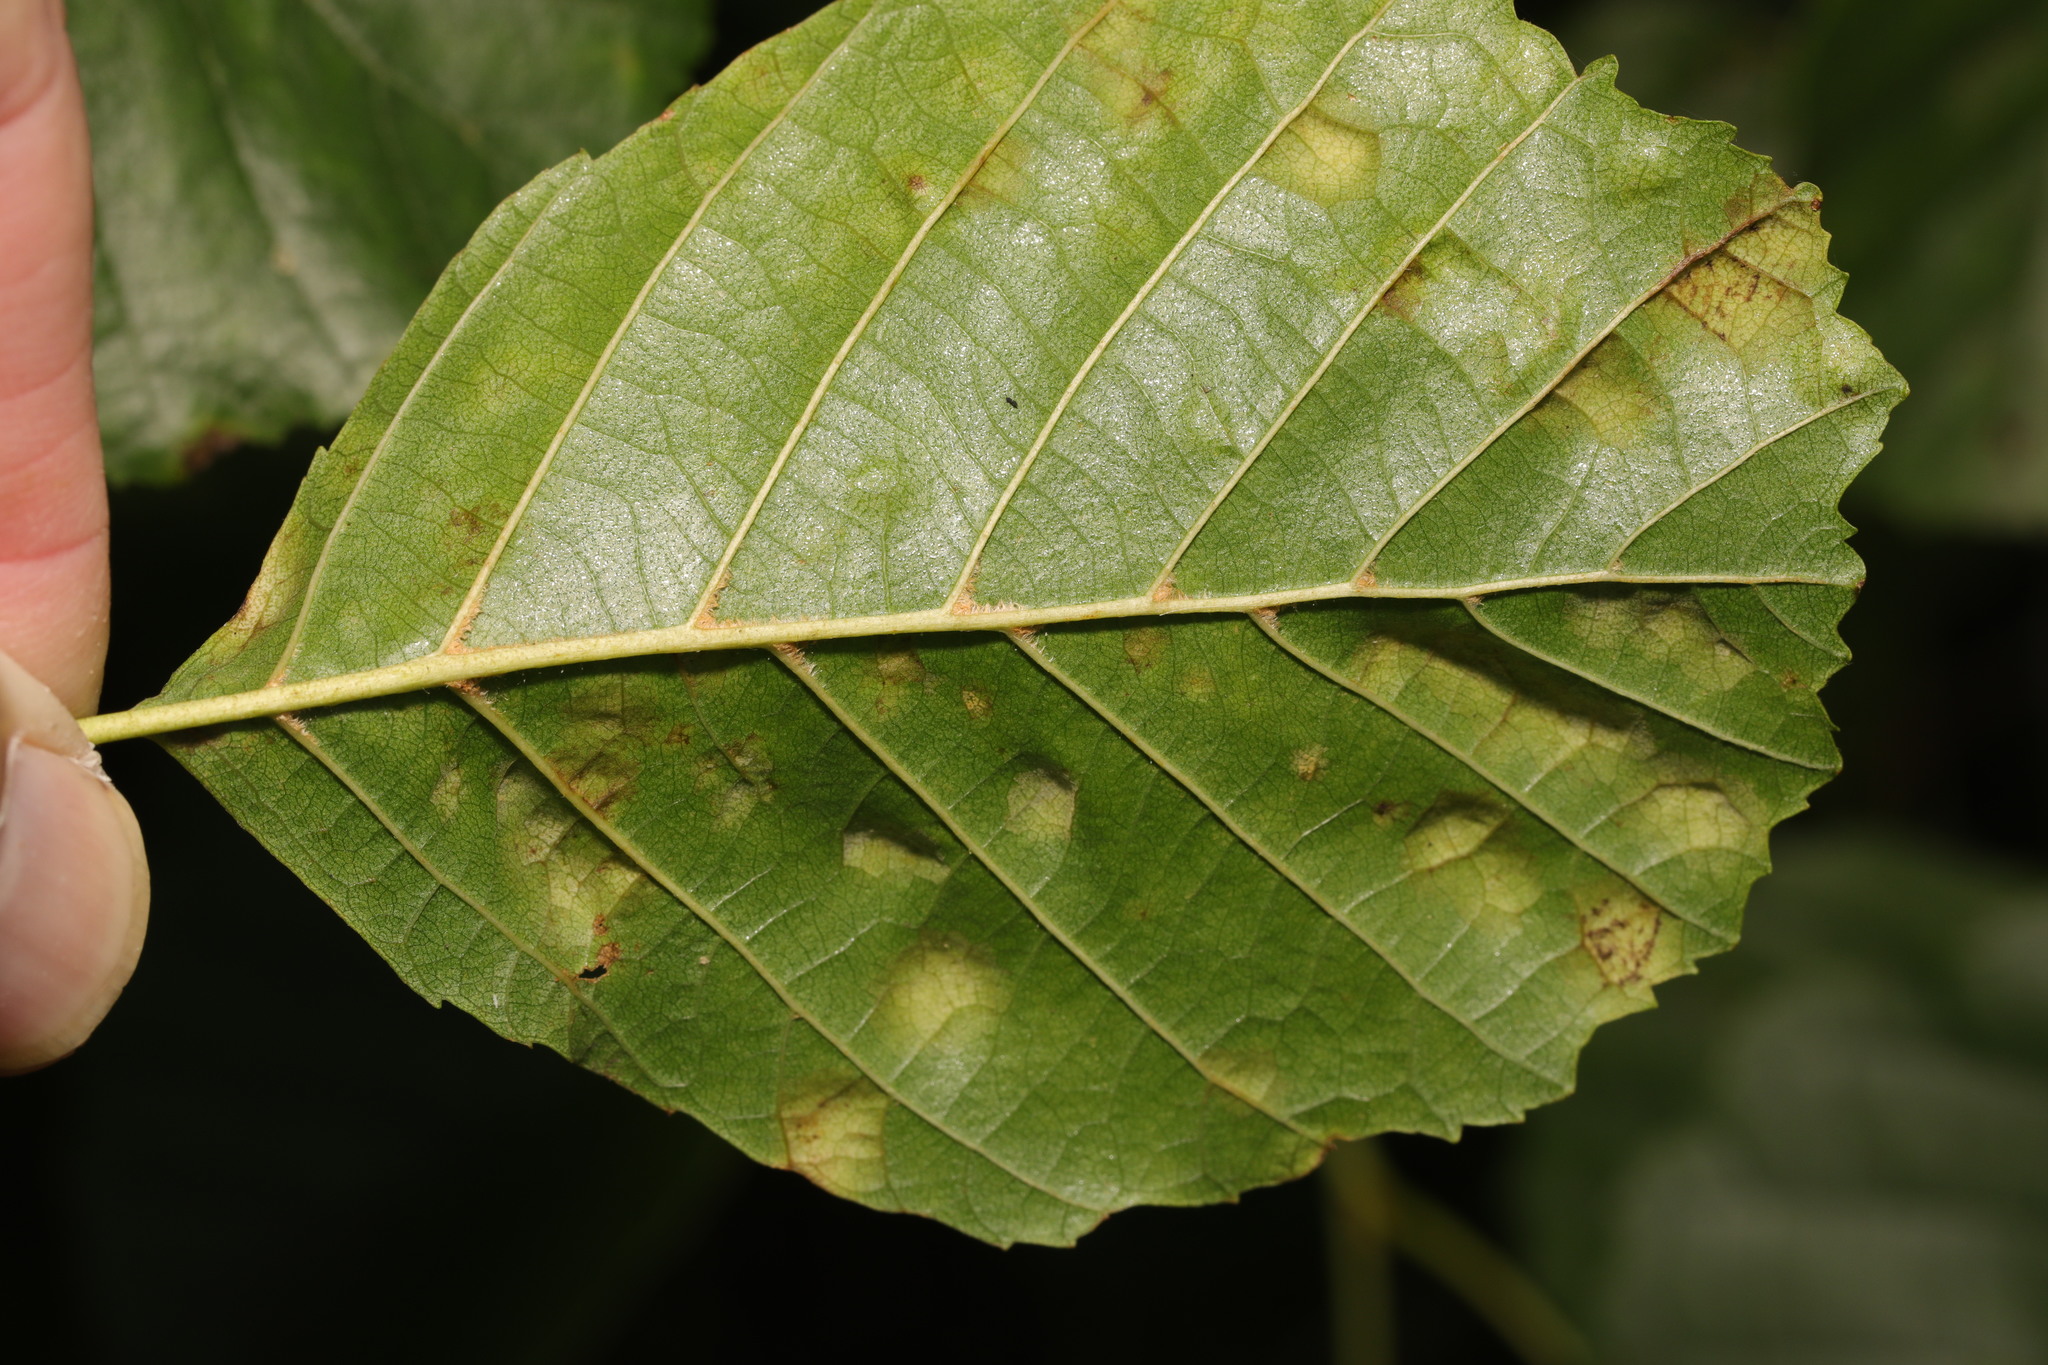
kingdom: Animalia
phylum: Arthropoda
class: Arachnida
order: Trombidiformes
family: Eriophyidae
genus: Acalitus
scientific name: Acalitus brevitarsus
